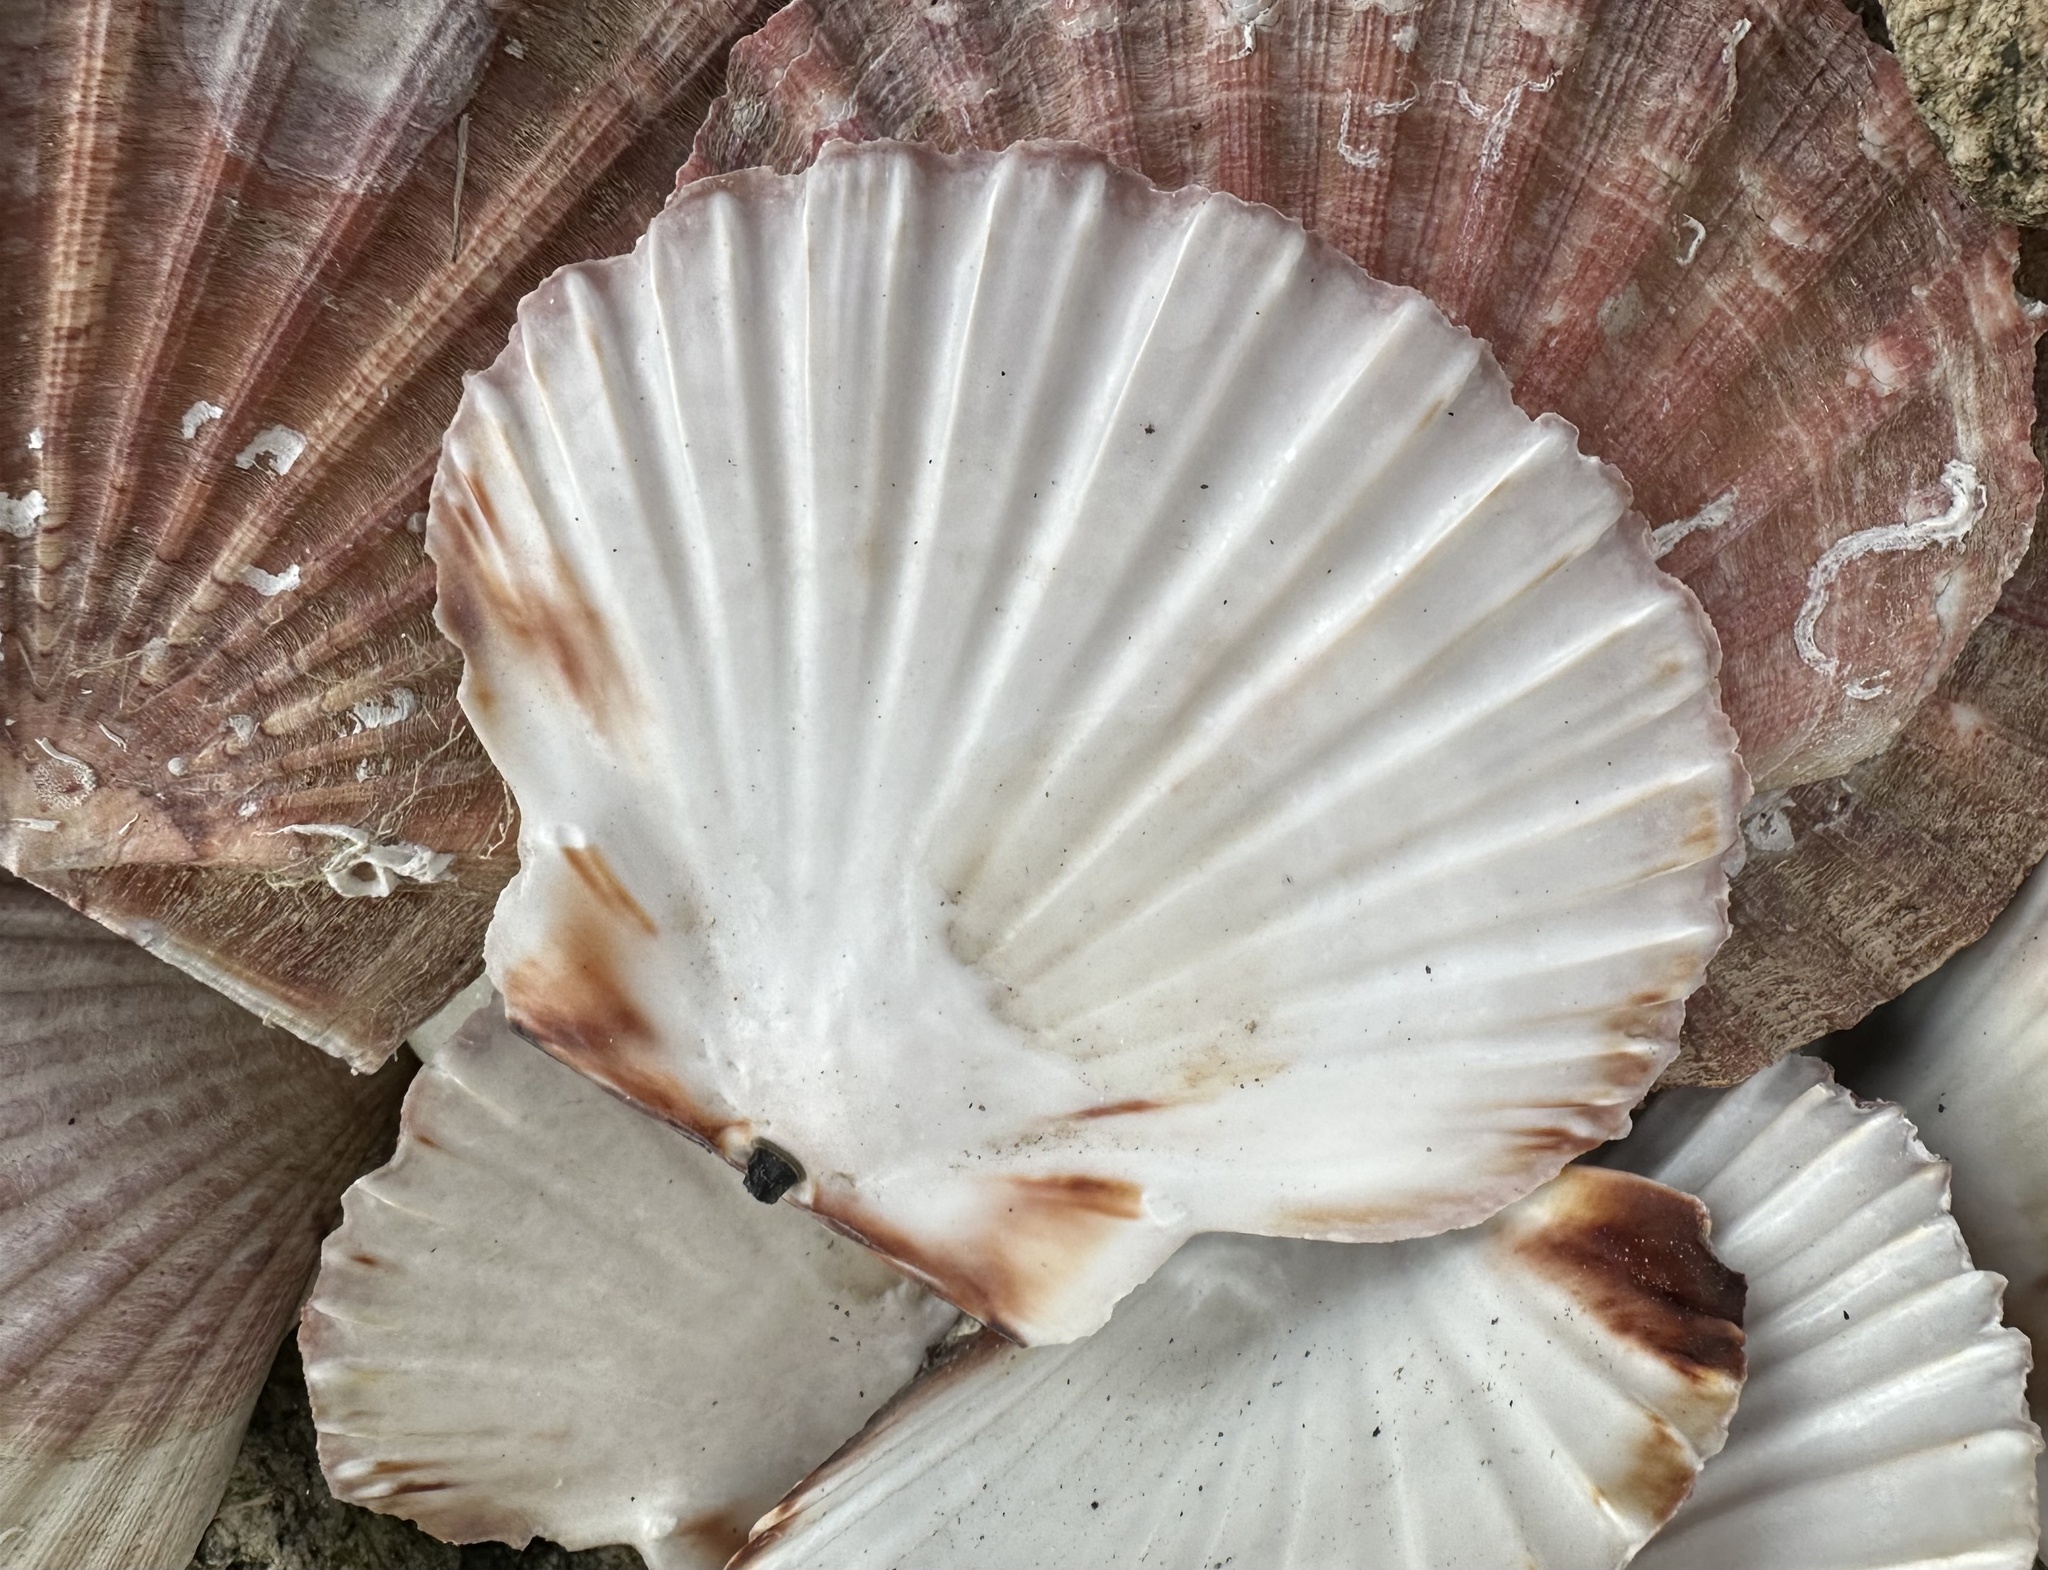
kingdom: Animalia
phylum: Mollusca
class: Bivalvia
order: Pectinida
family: Pectinidae
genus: Pecten
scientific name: Pecten maximus
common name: Great scallop
